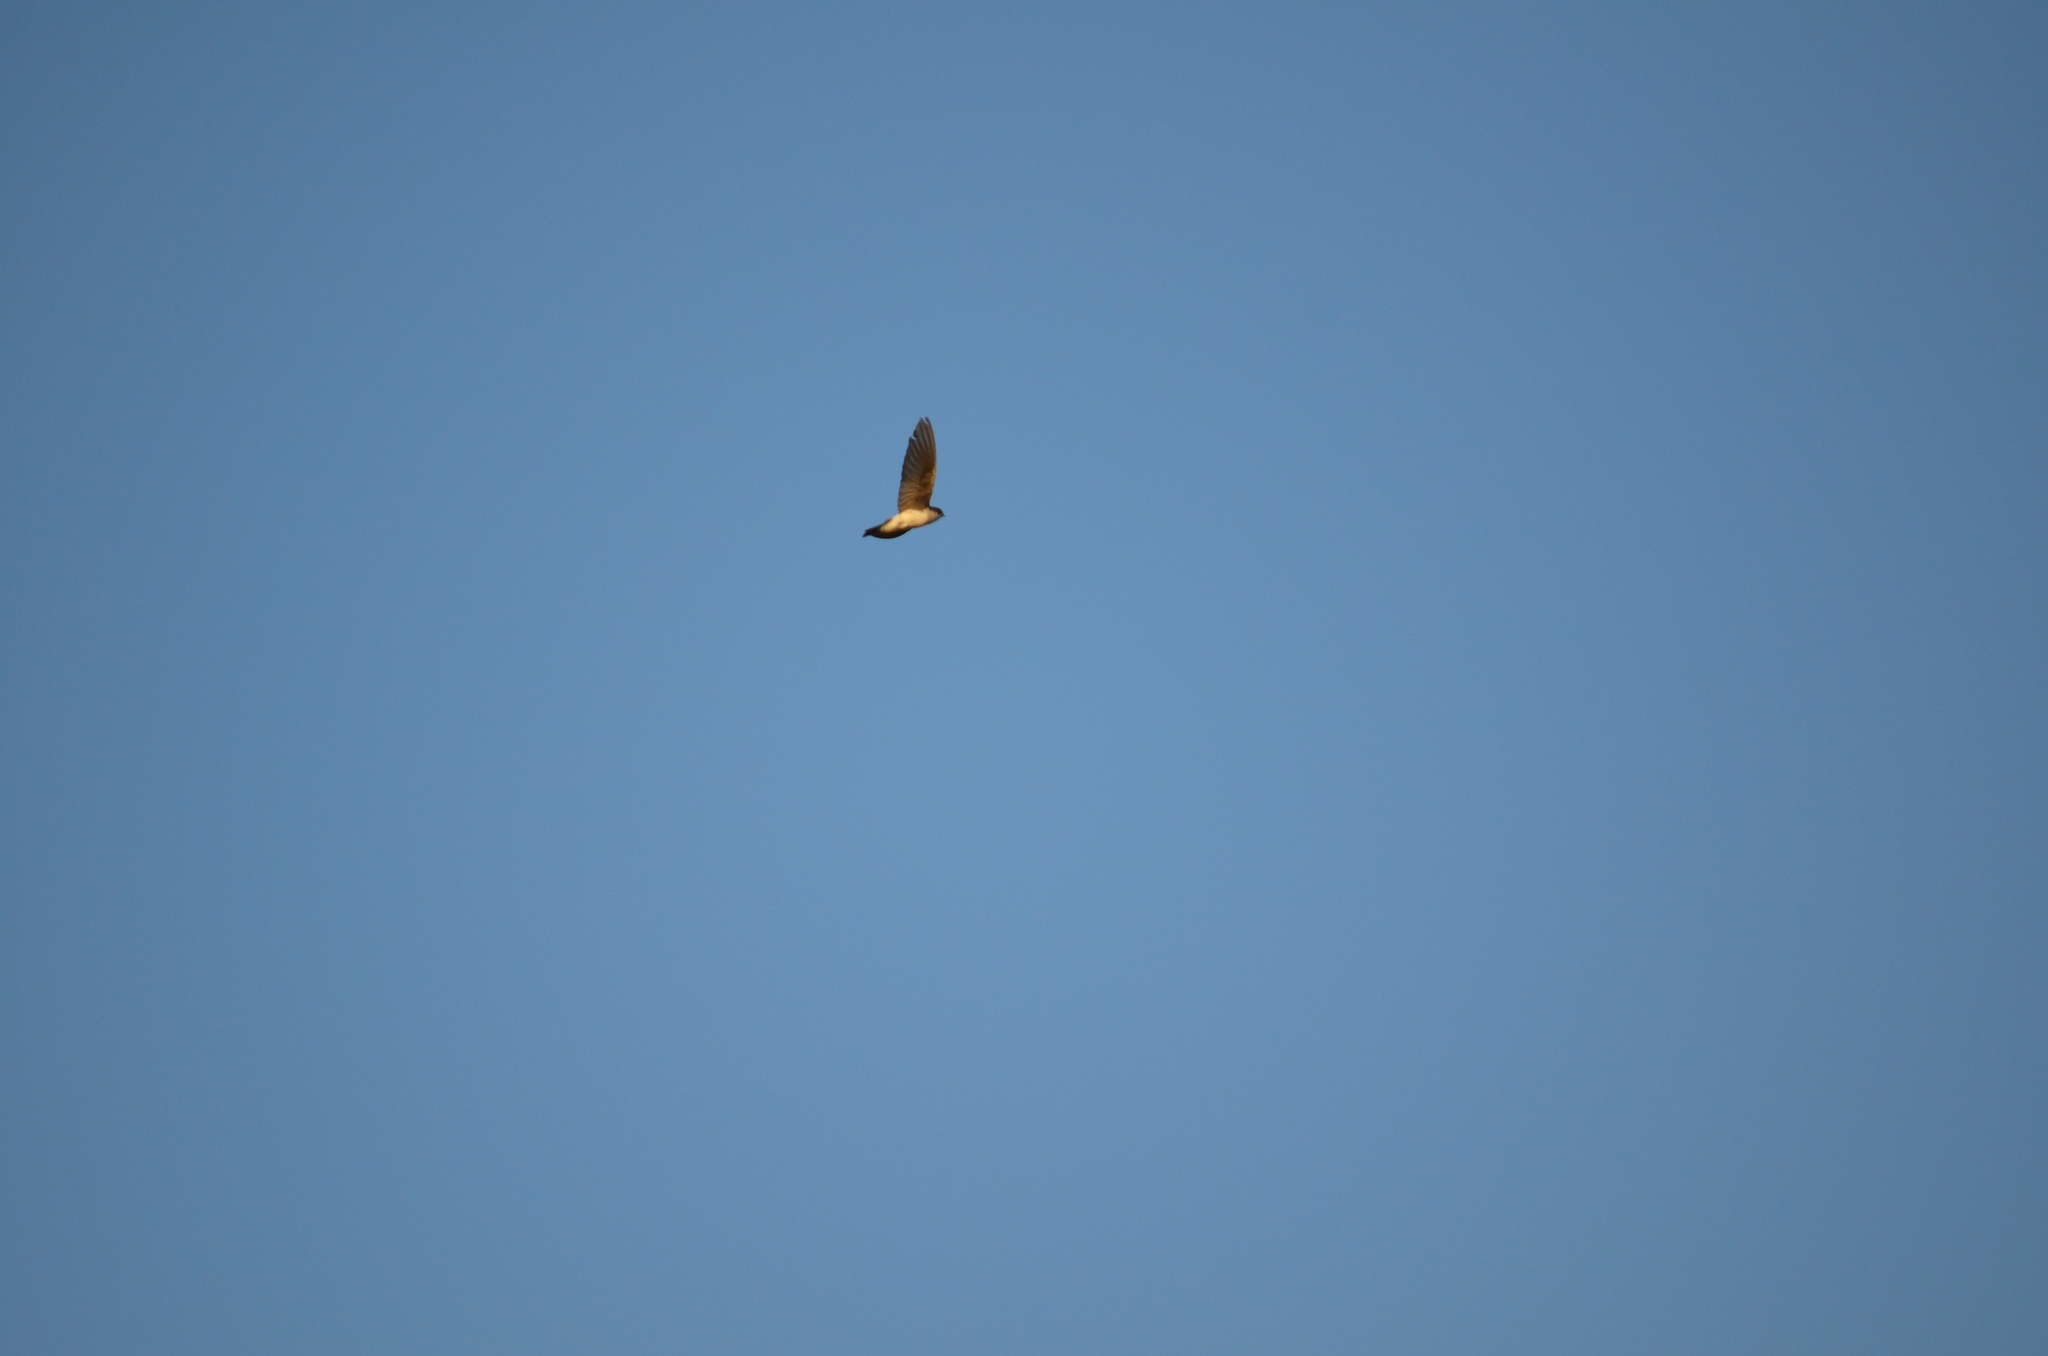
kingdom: Animalia
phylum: Chordata
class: Aves
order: Passeriformes
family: Hirundinidae
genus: Tachycineta
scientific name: Tachycineta bicolor
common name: Tree swallow
